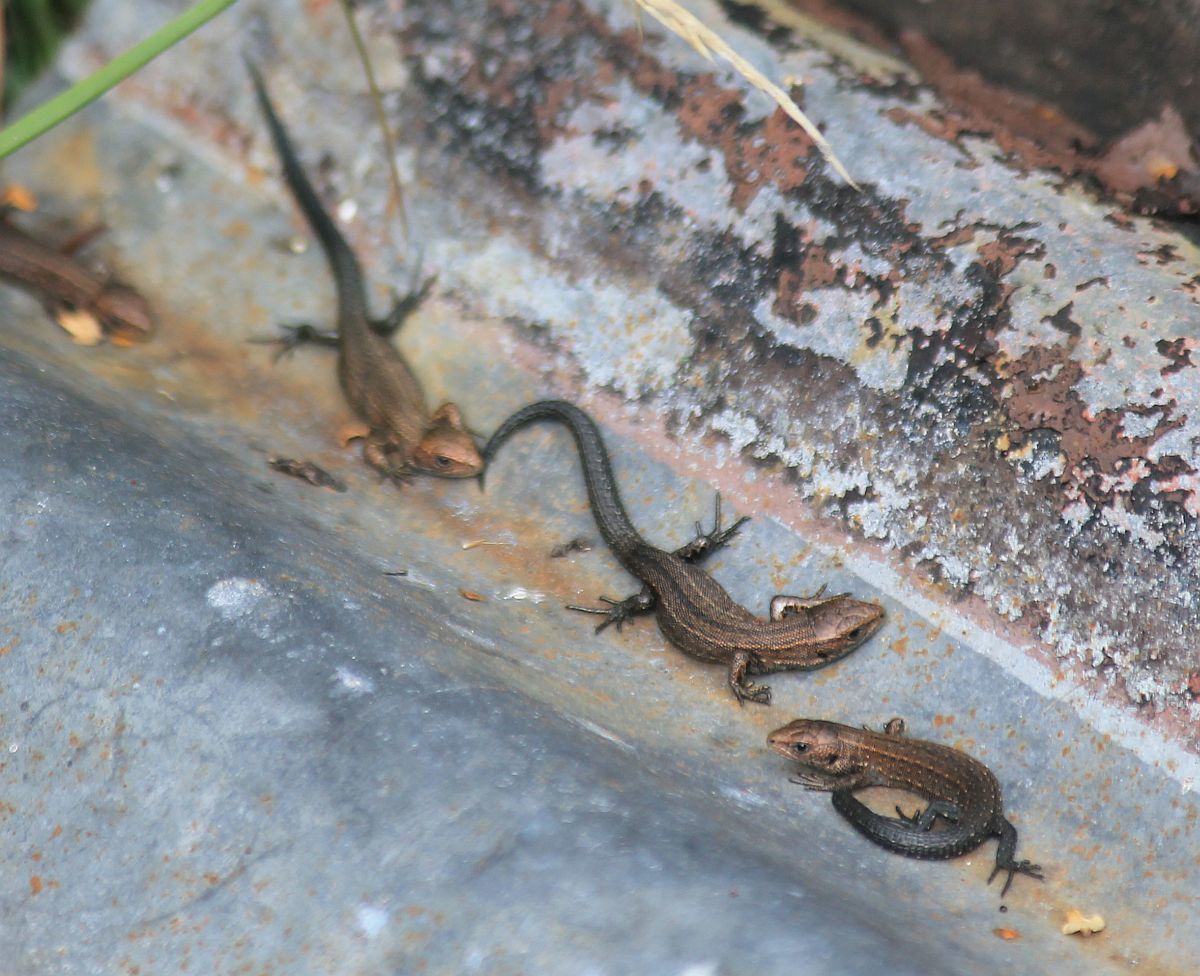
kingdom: Animalia
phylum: Chordata
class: Squamata
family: Lacertidae
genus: Zootoca
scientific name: Zootoca vivipara
